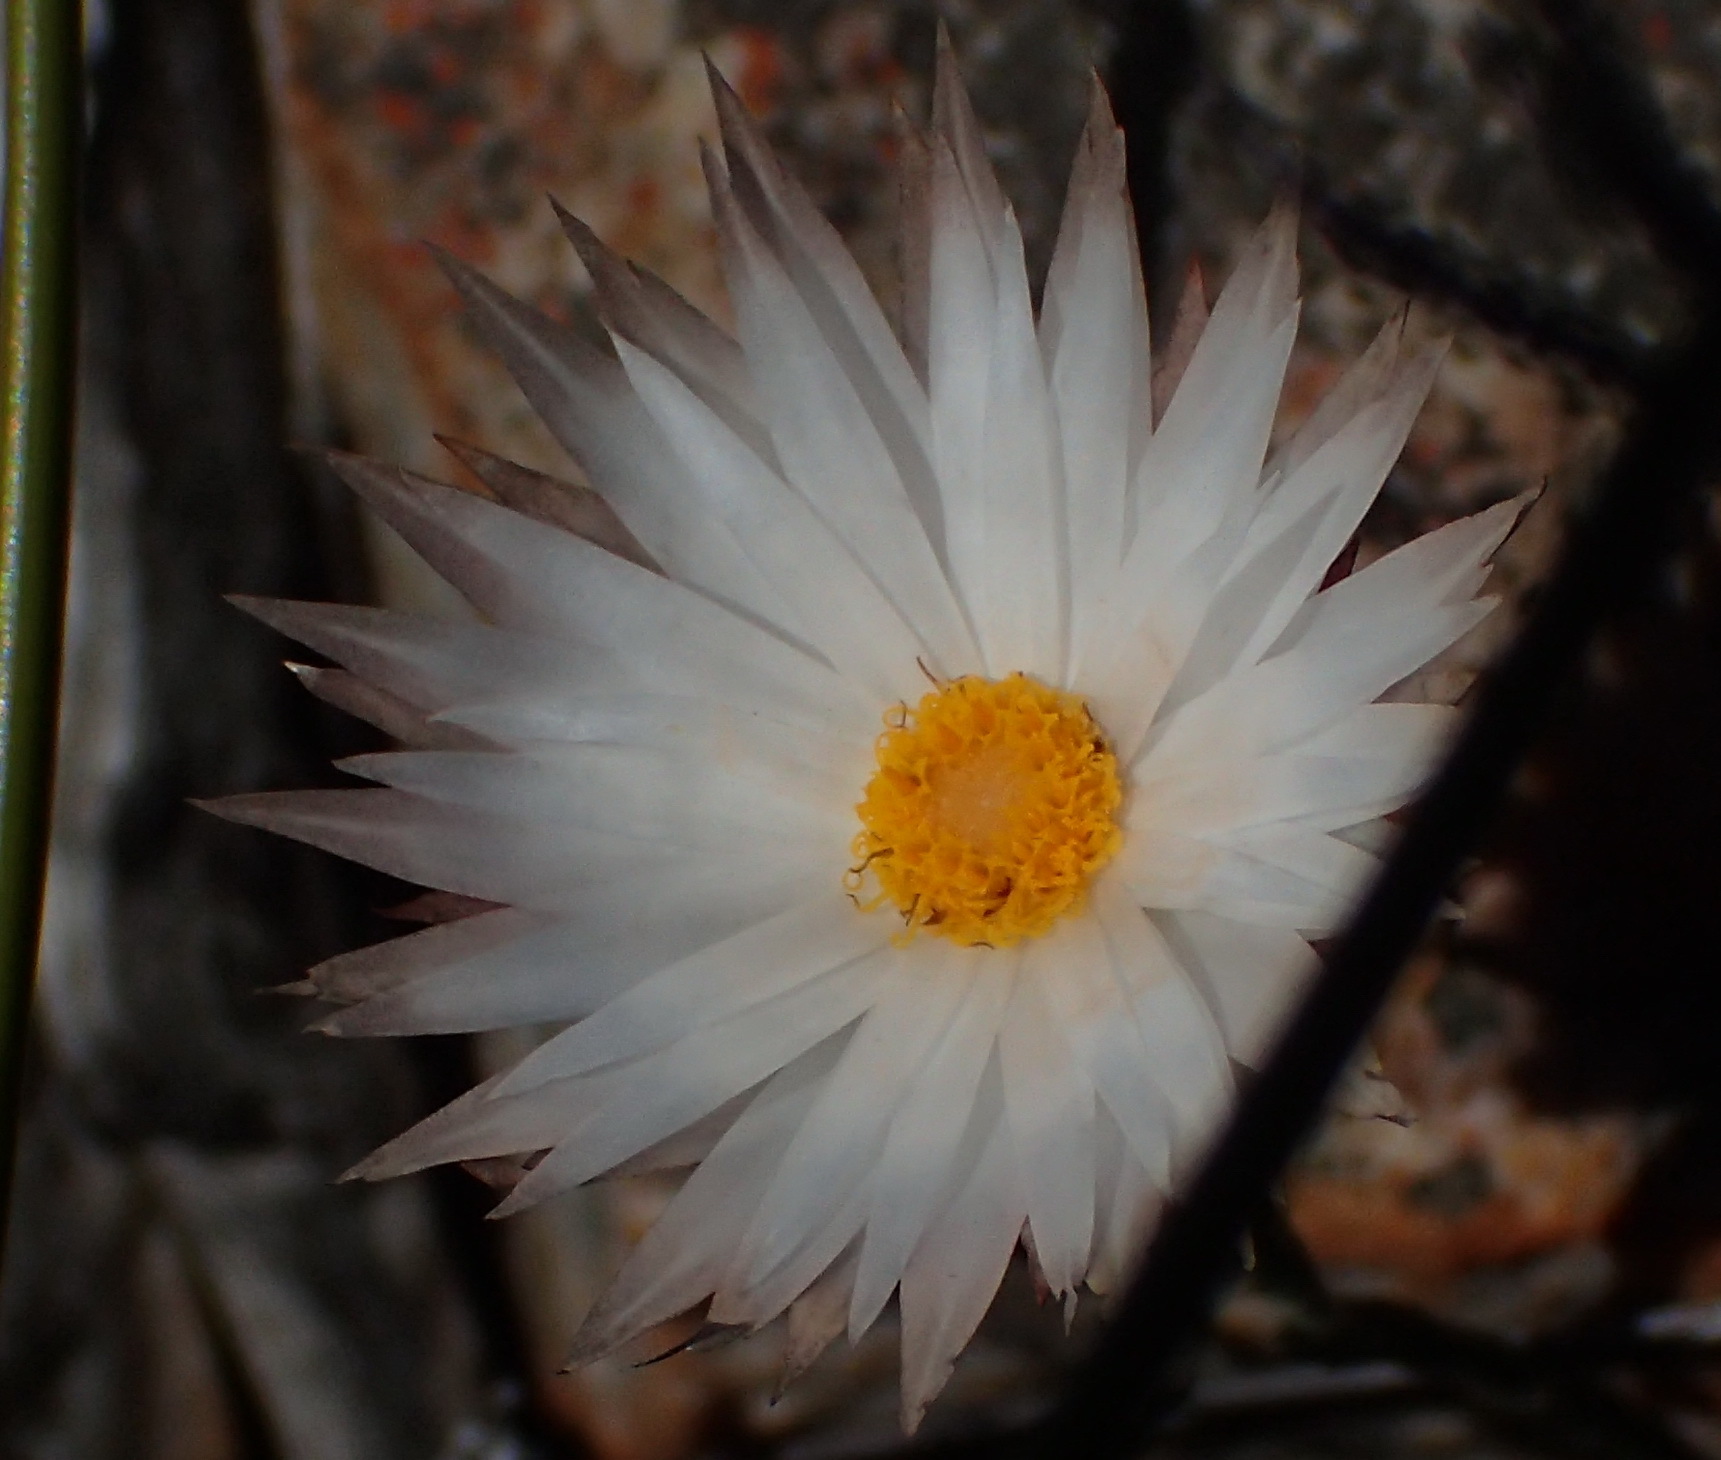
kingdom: Plantae
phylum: Tracheophyta
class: Magnoliopsida
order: Asterales
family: Asteraceae
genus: Syncarpha
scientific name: Syncarpha canescens
